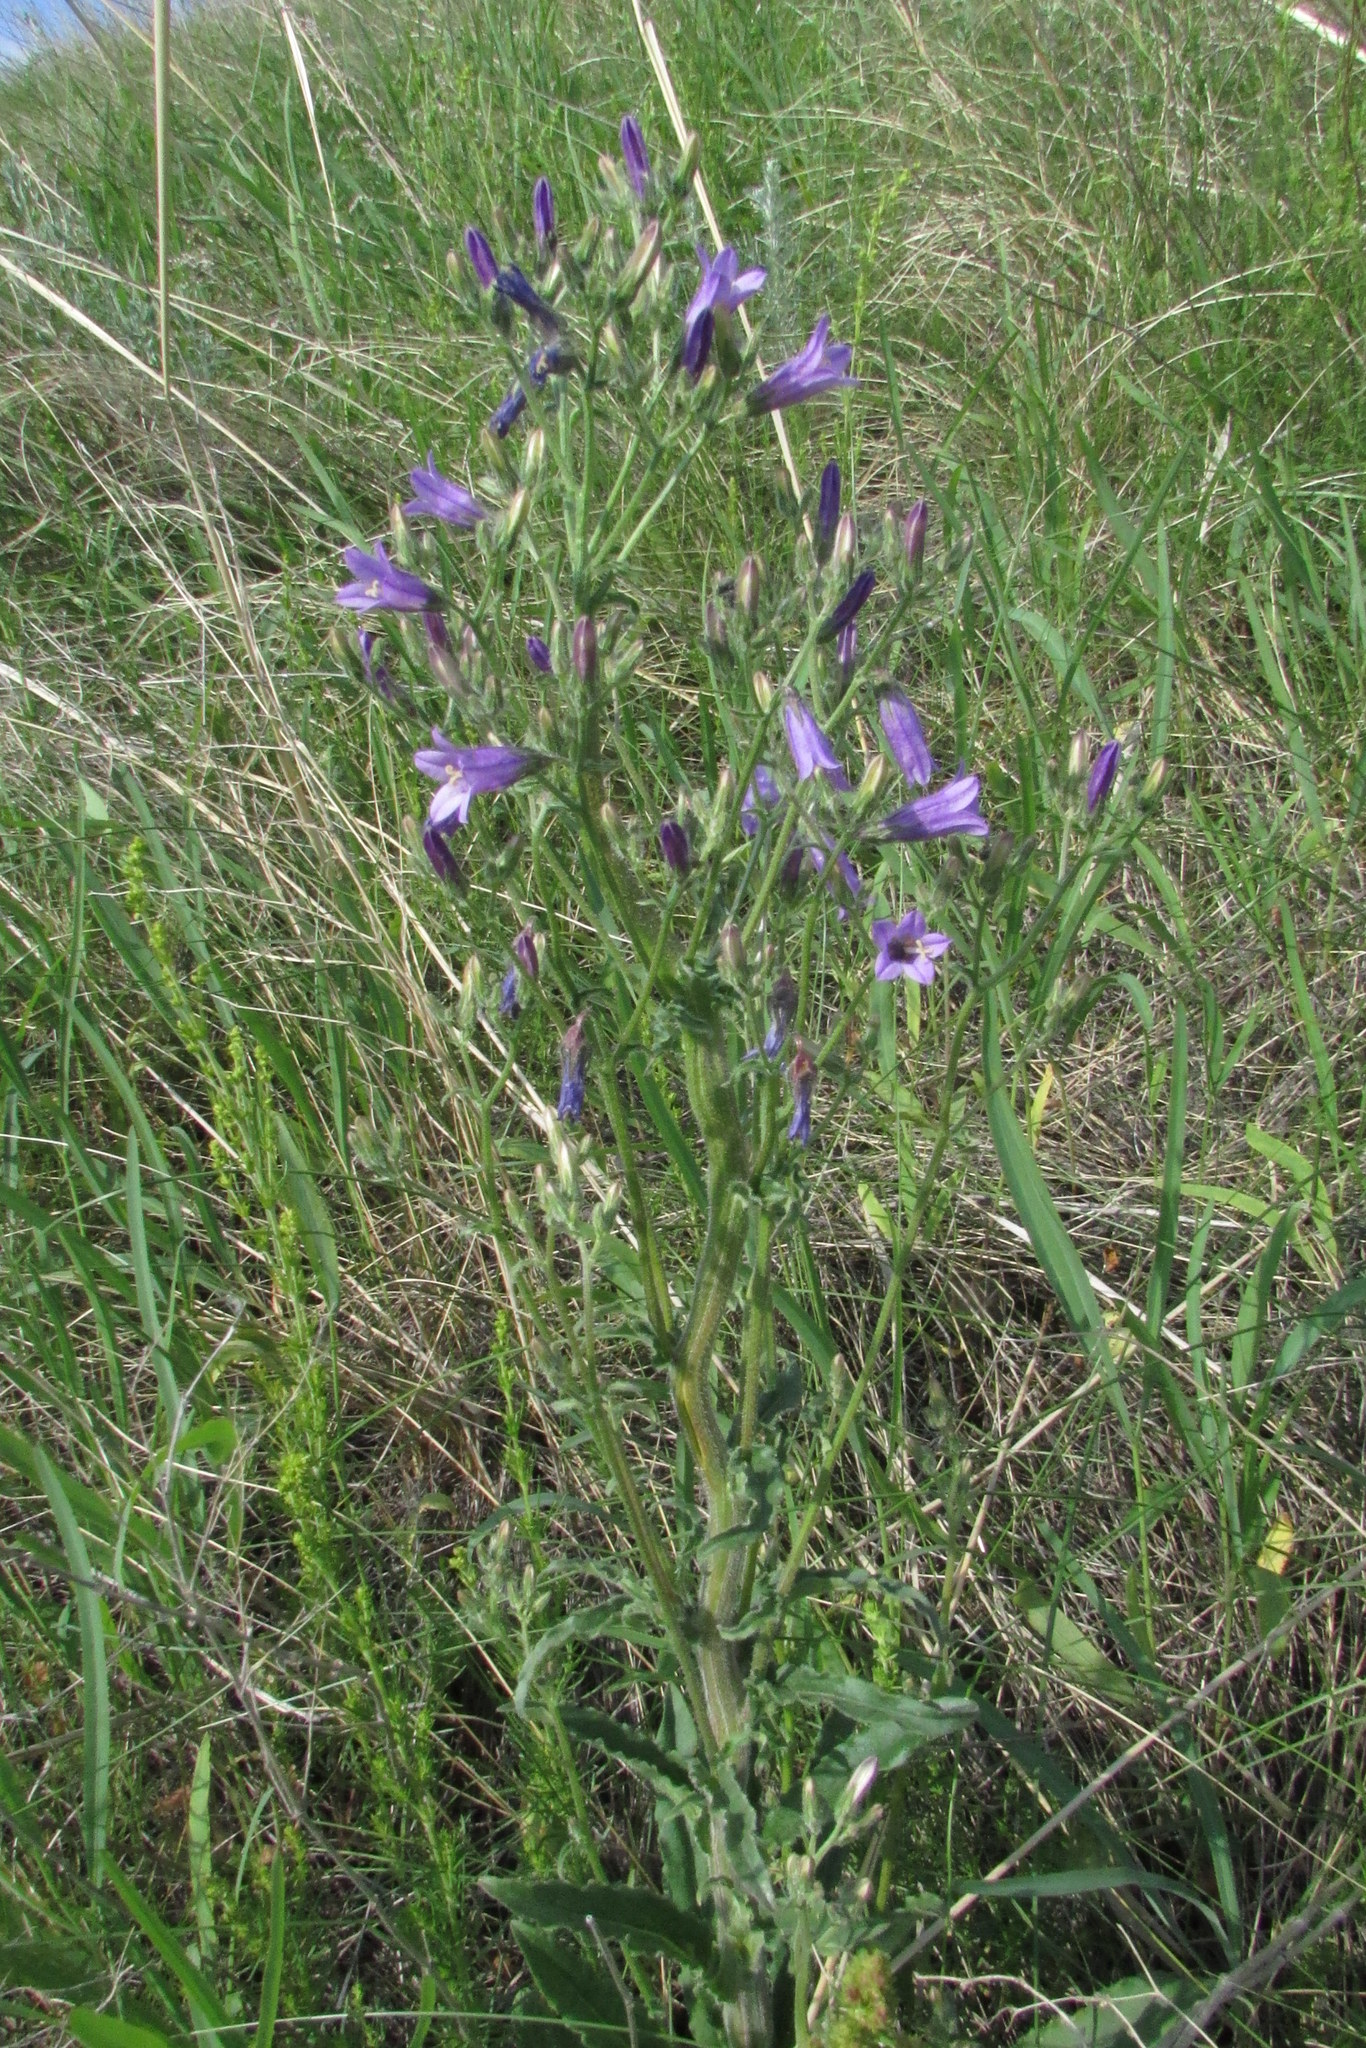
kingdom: Plantae
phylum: Tracheophyta
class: Magnoliopsida
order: Asterales
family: Campanulaceae
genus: Campanula
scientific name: Campanula sibirica
